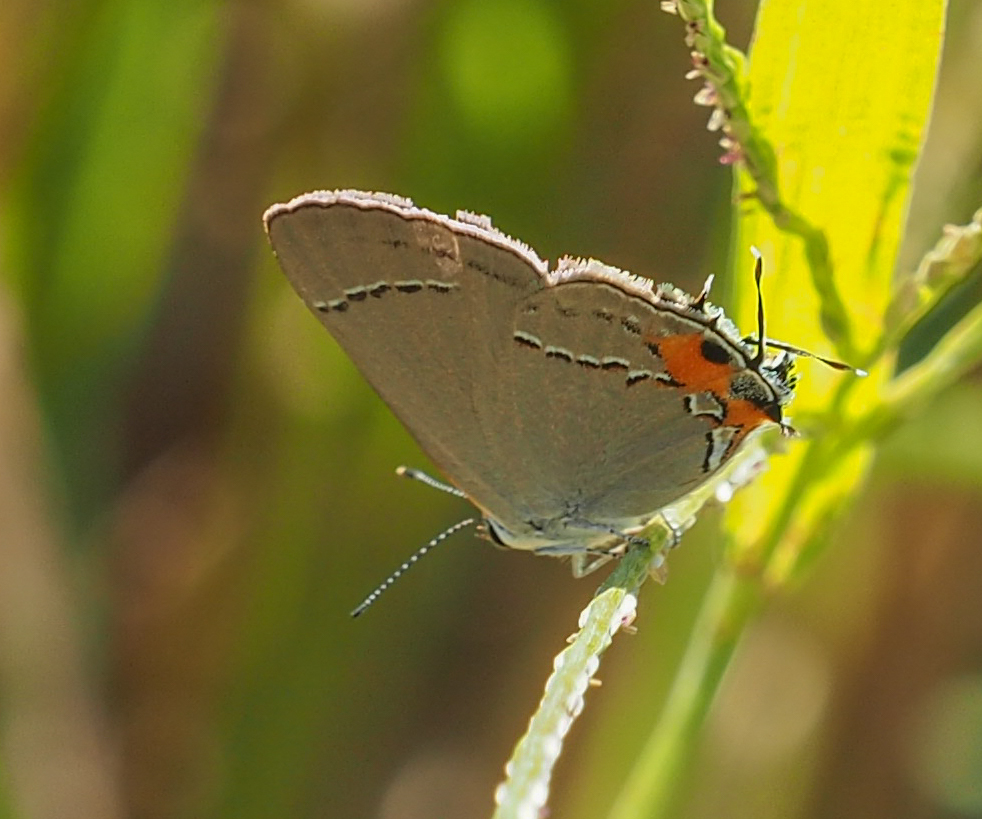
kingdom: Animalia
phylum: Arthropoda
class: Insecta
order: Lepidoptera
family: Lycaenidae
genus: Strymon
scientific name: Strymon melinus
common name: Gray hairstreak
